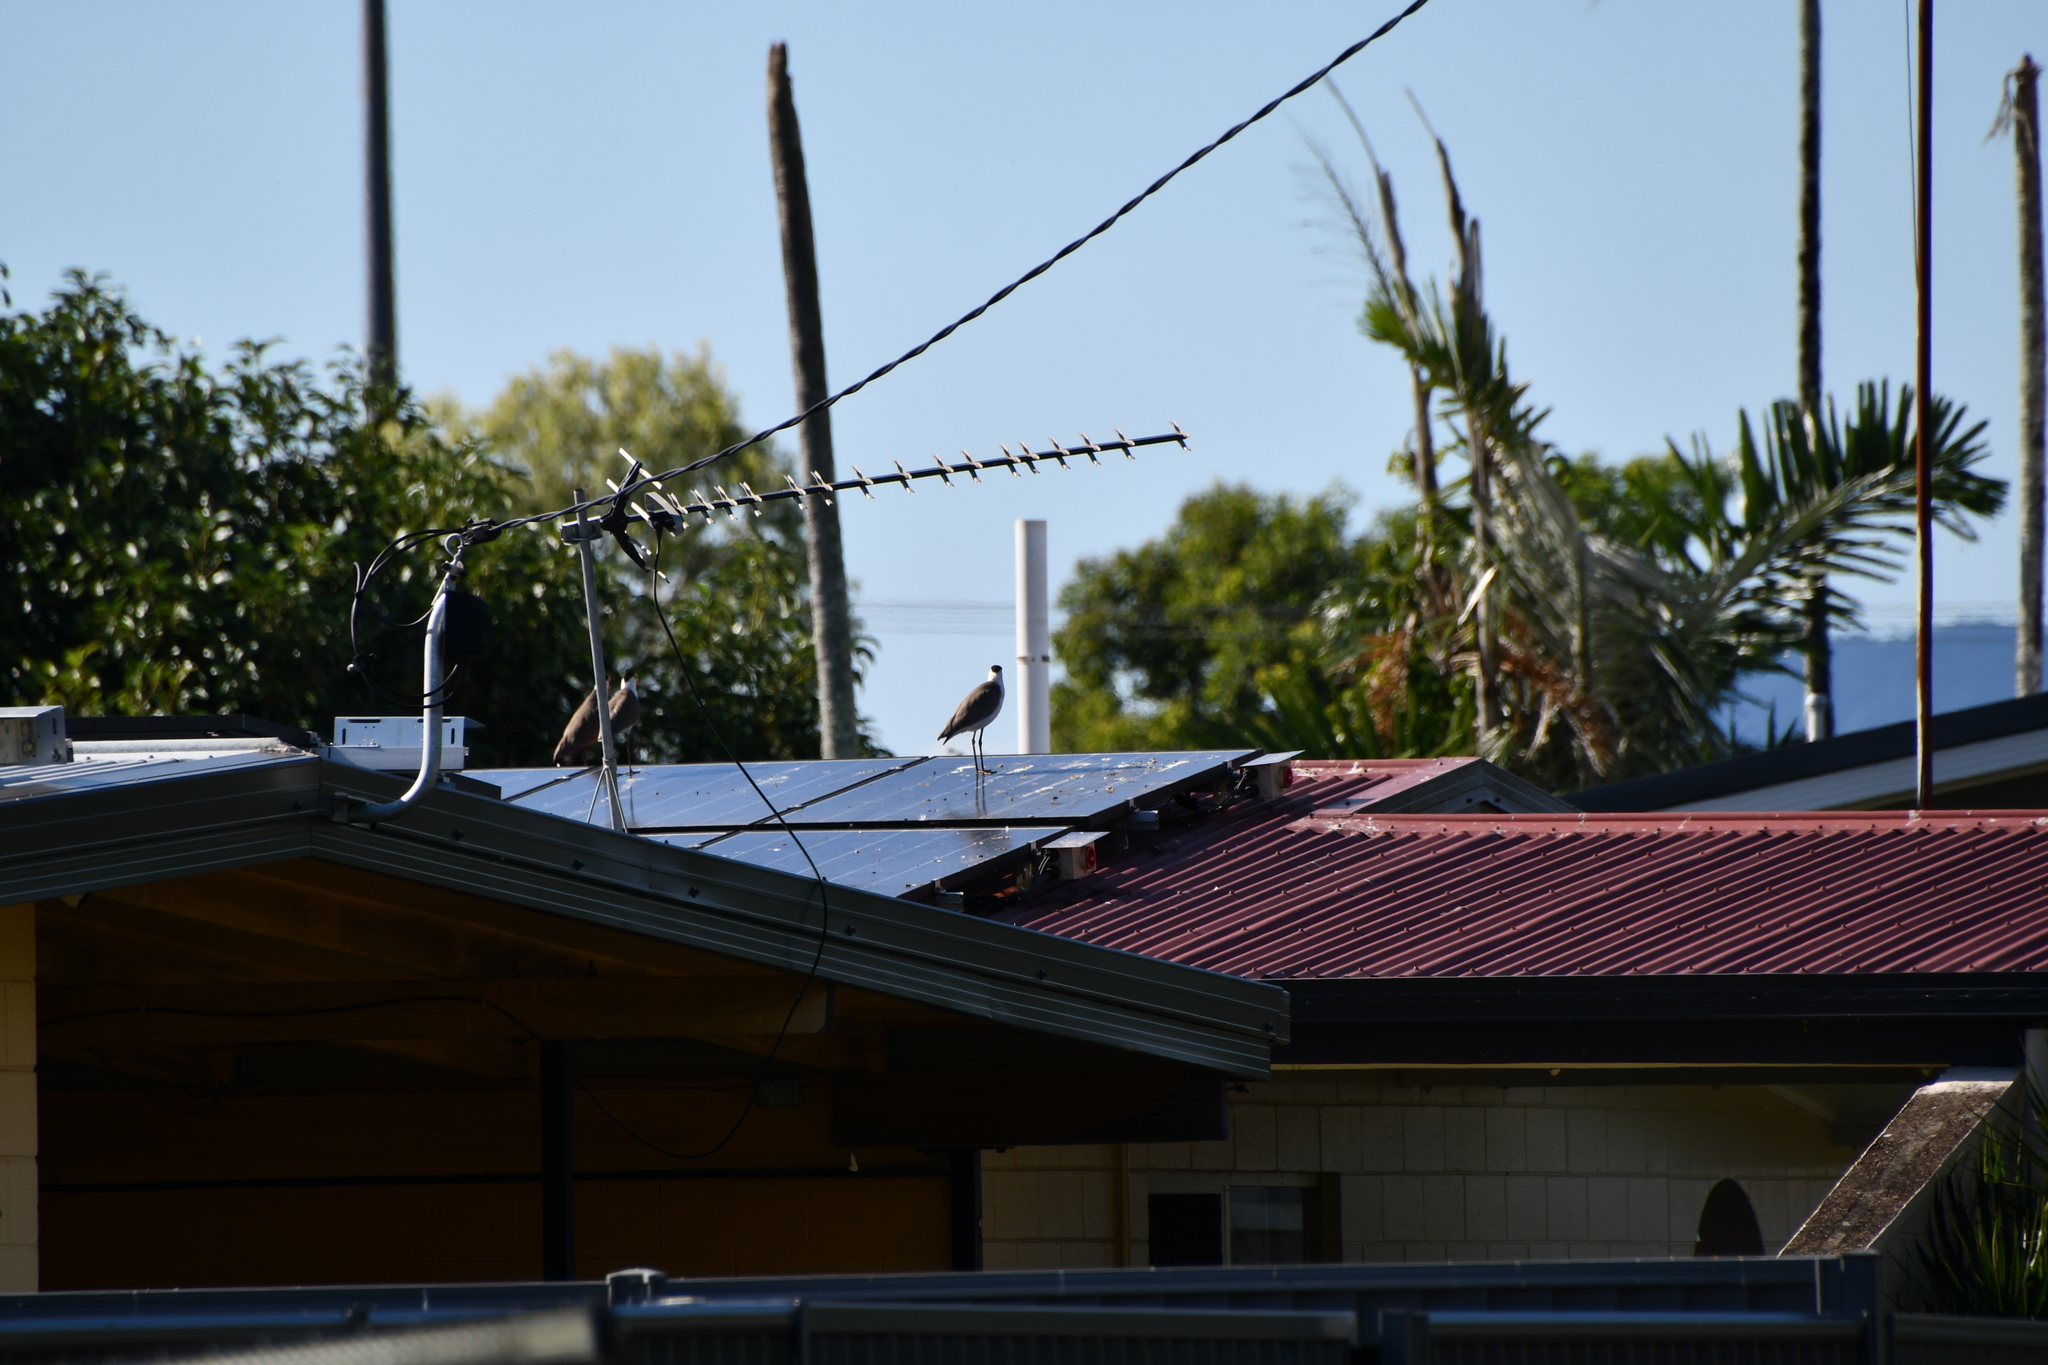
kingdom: Animalia
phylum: Chordata
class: Aves
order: Charadriiformes
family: Charadriidae
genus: Vanellus
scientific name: Vanellus miles
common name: Masked lapwing
